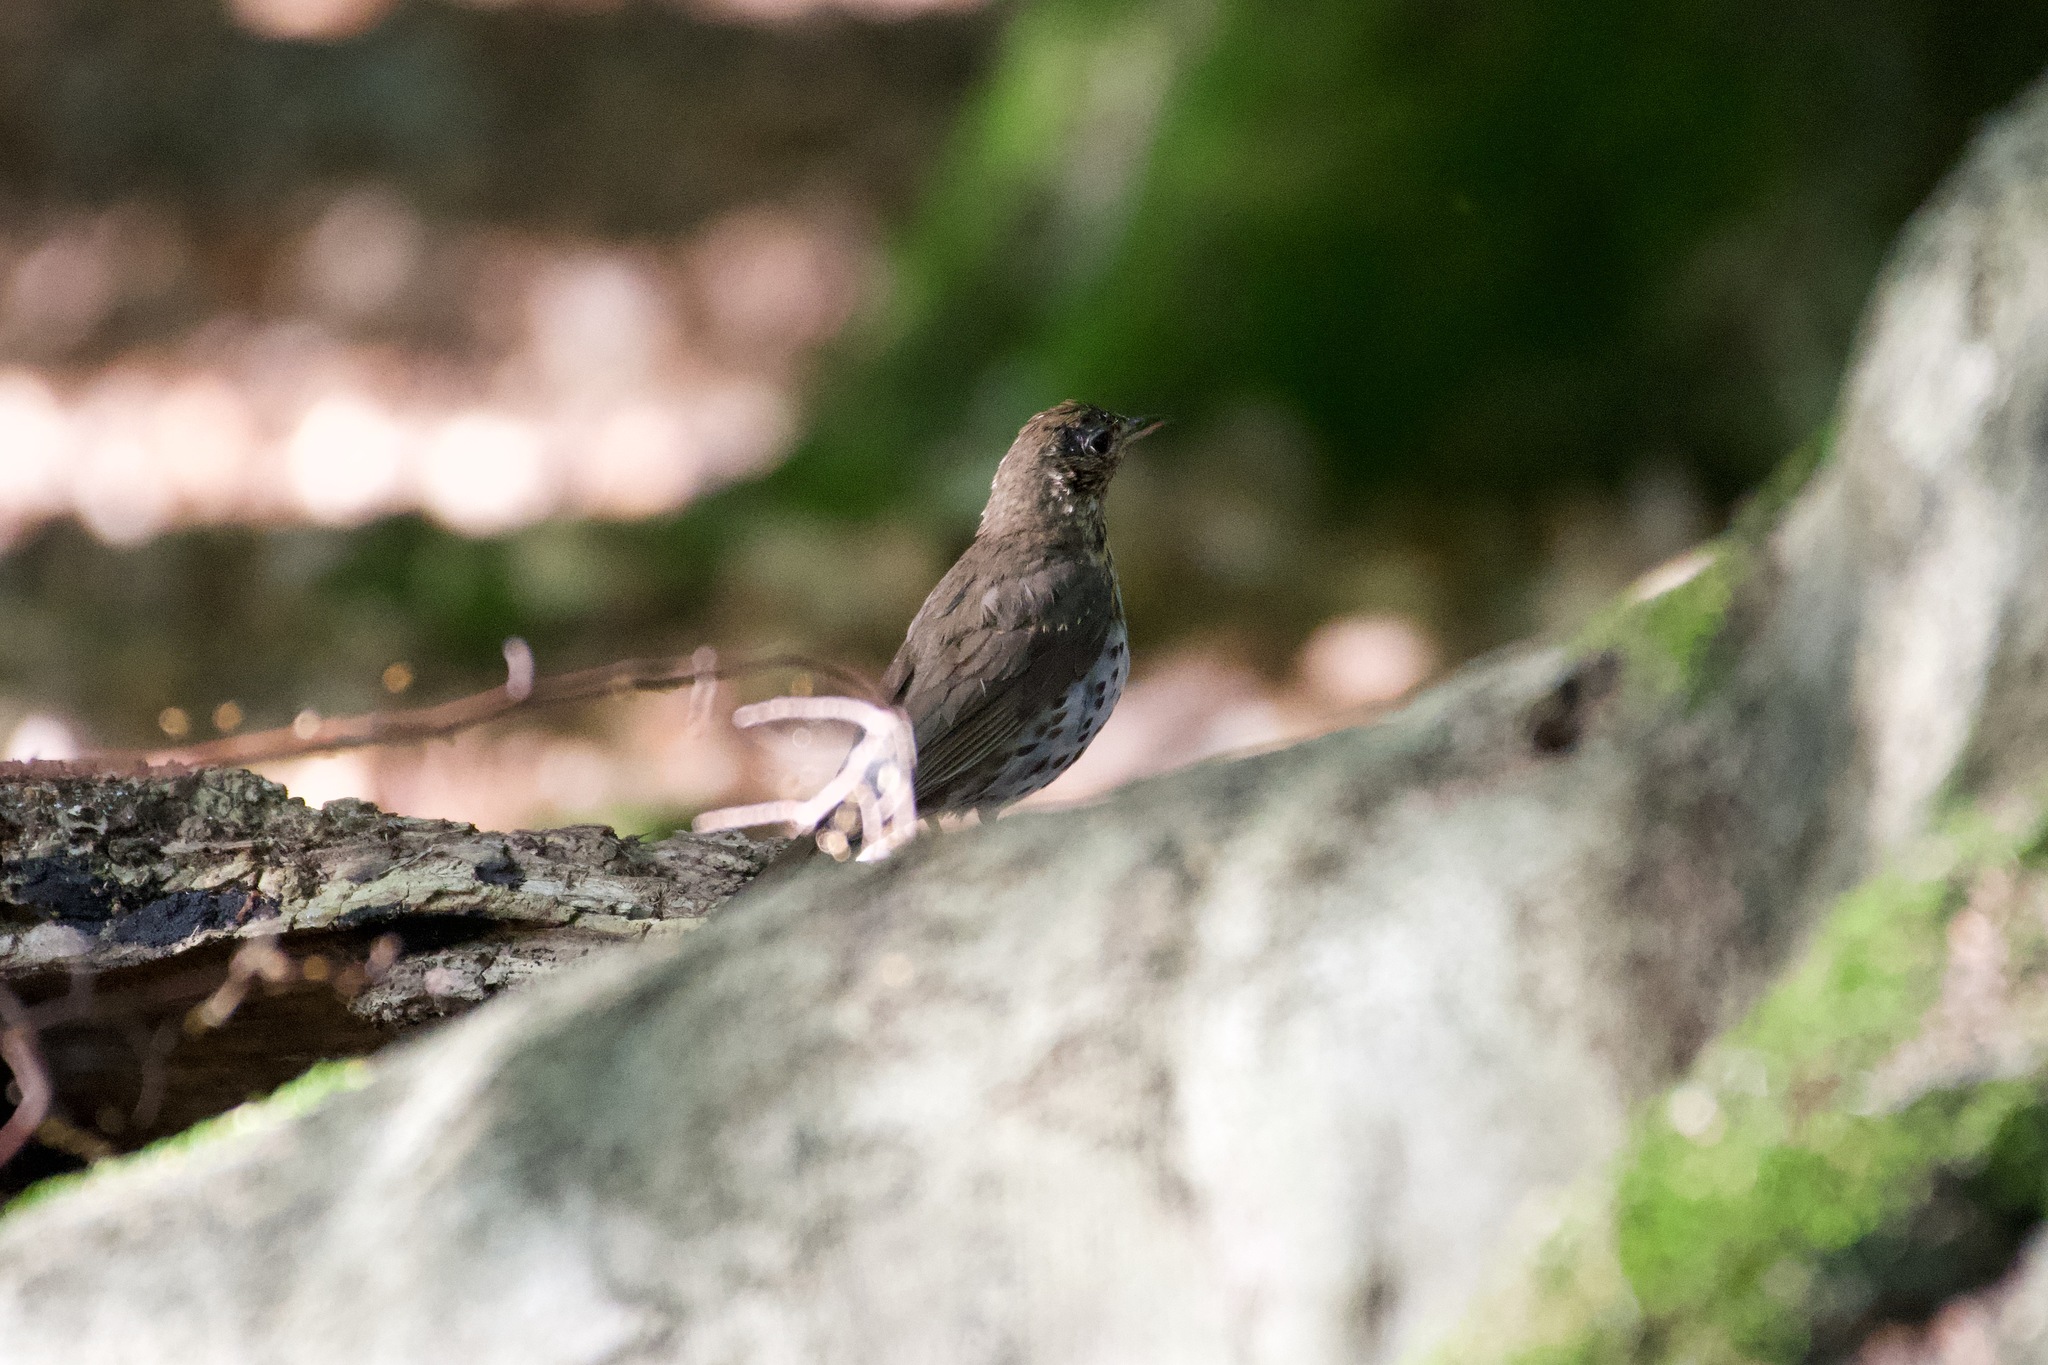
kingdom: Animalia
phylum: Chordata
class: Aves
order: Passeriformes
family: Turdidae
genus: Turdus
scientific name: Turdus philomelos
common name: Song thrush
